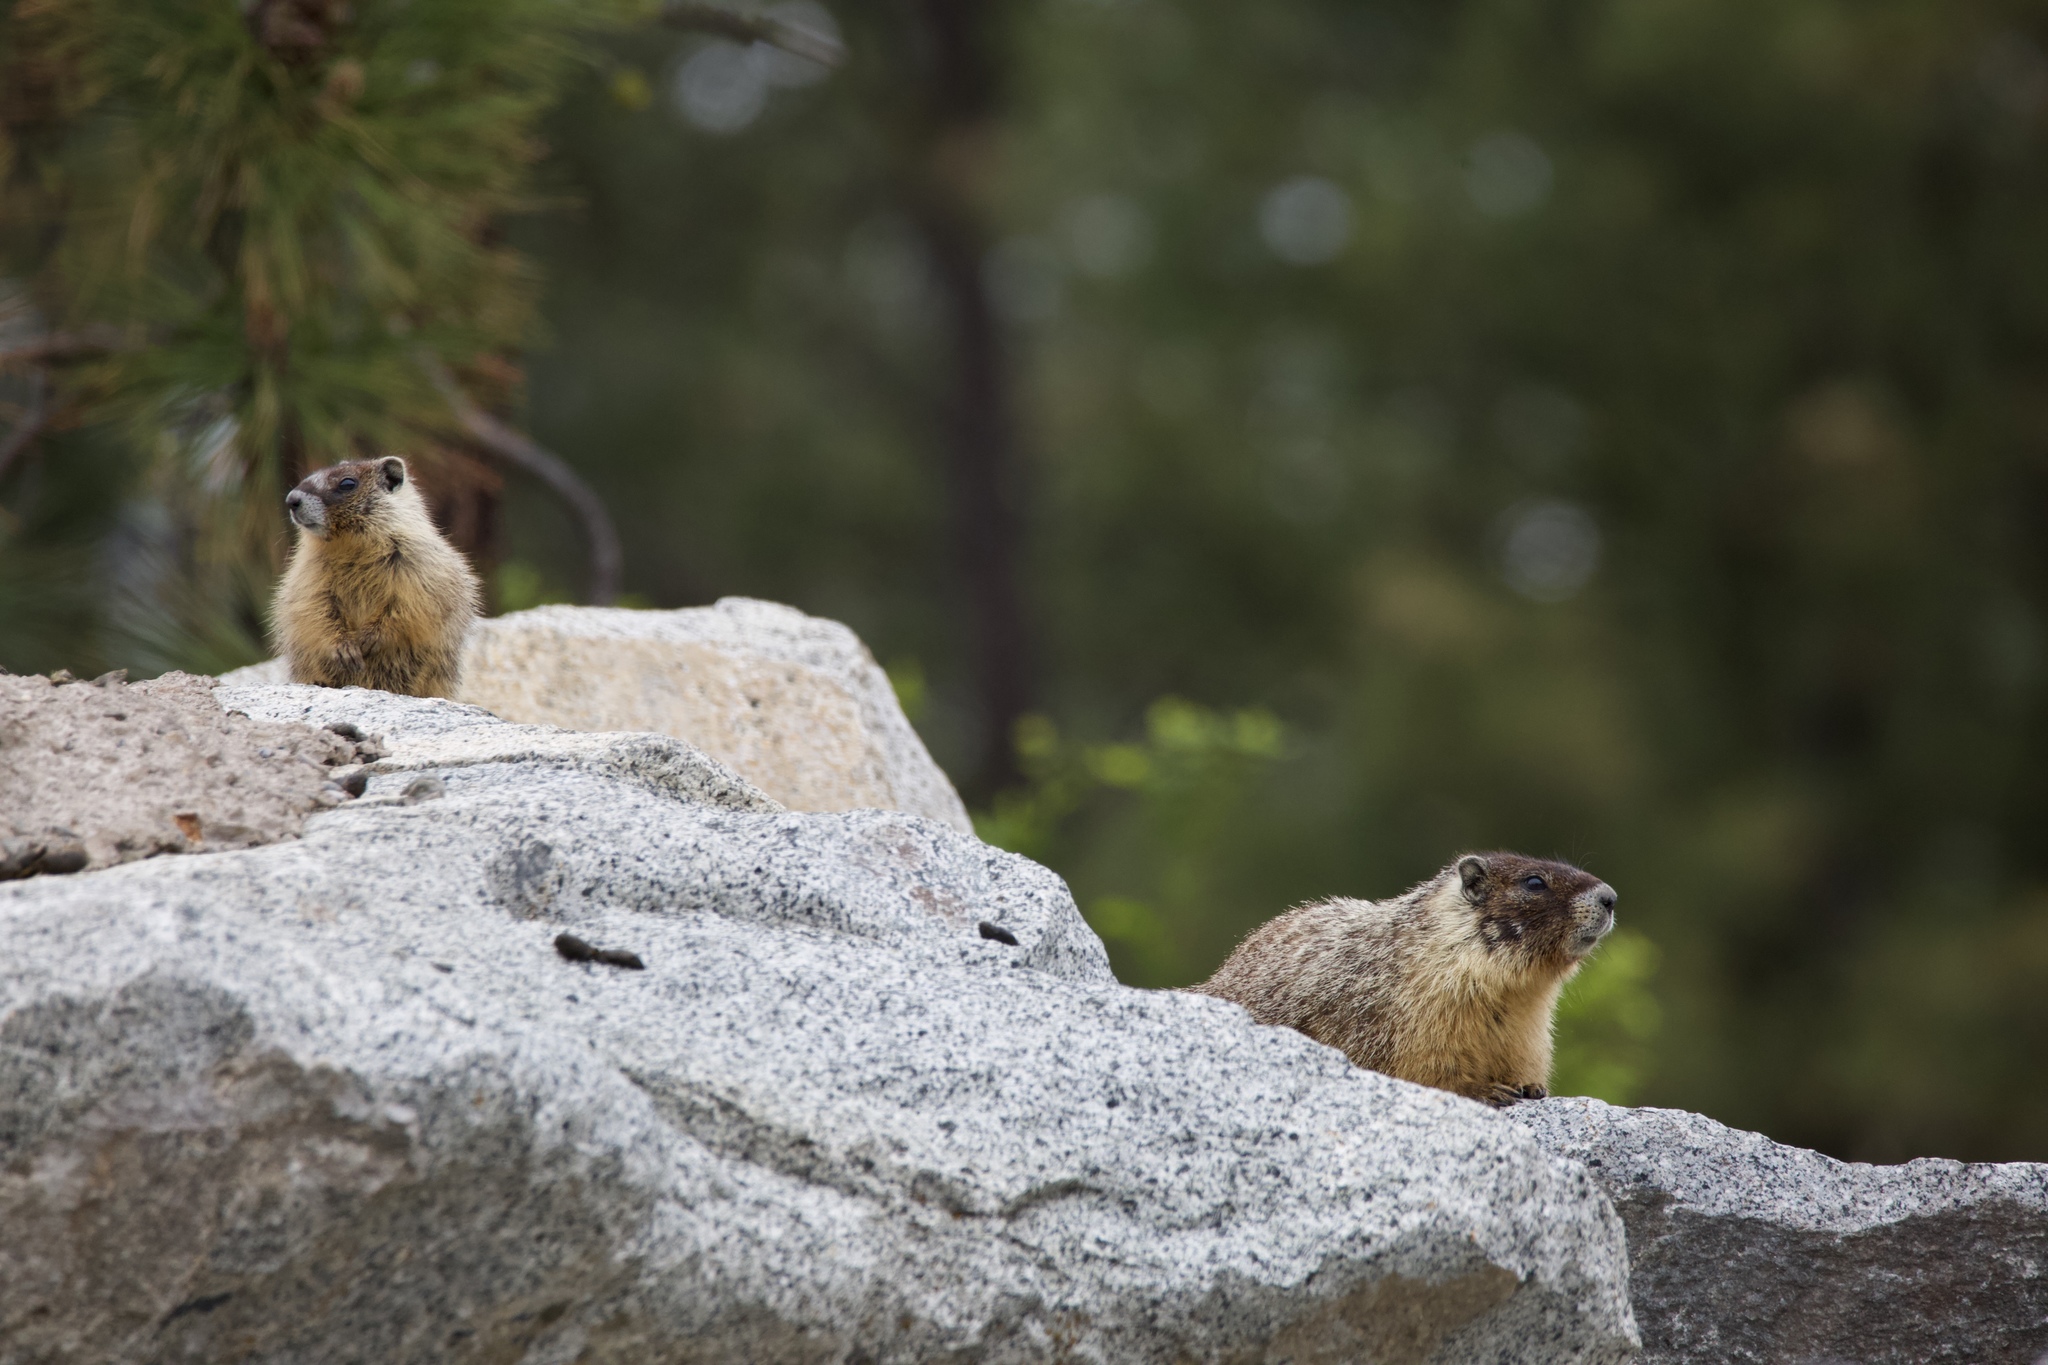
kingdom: Animalia
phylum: Chordata
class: Mammalia
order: Rodentia
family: Sciuridae
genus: Marmota
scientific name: Marmota flaviventris
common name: Yellow-bellied marmot
